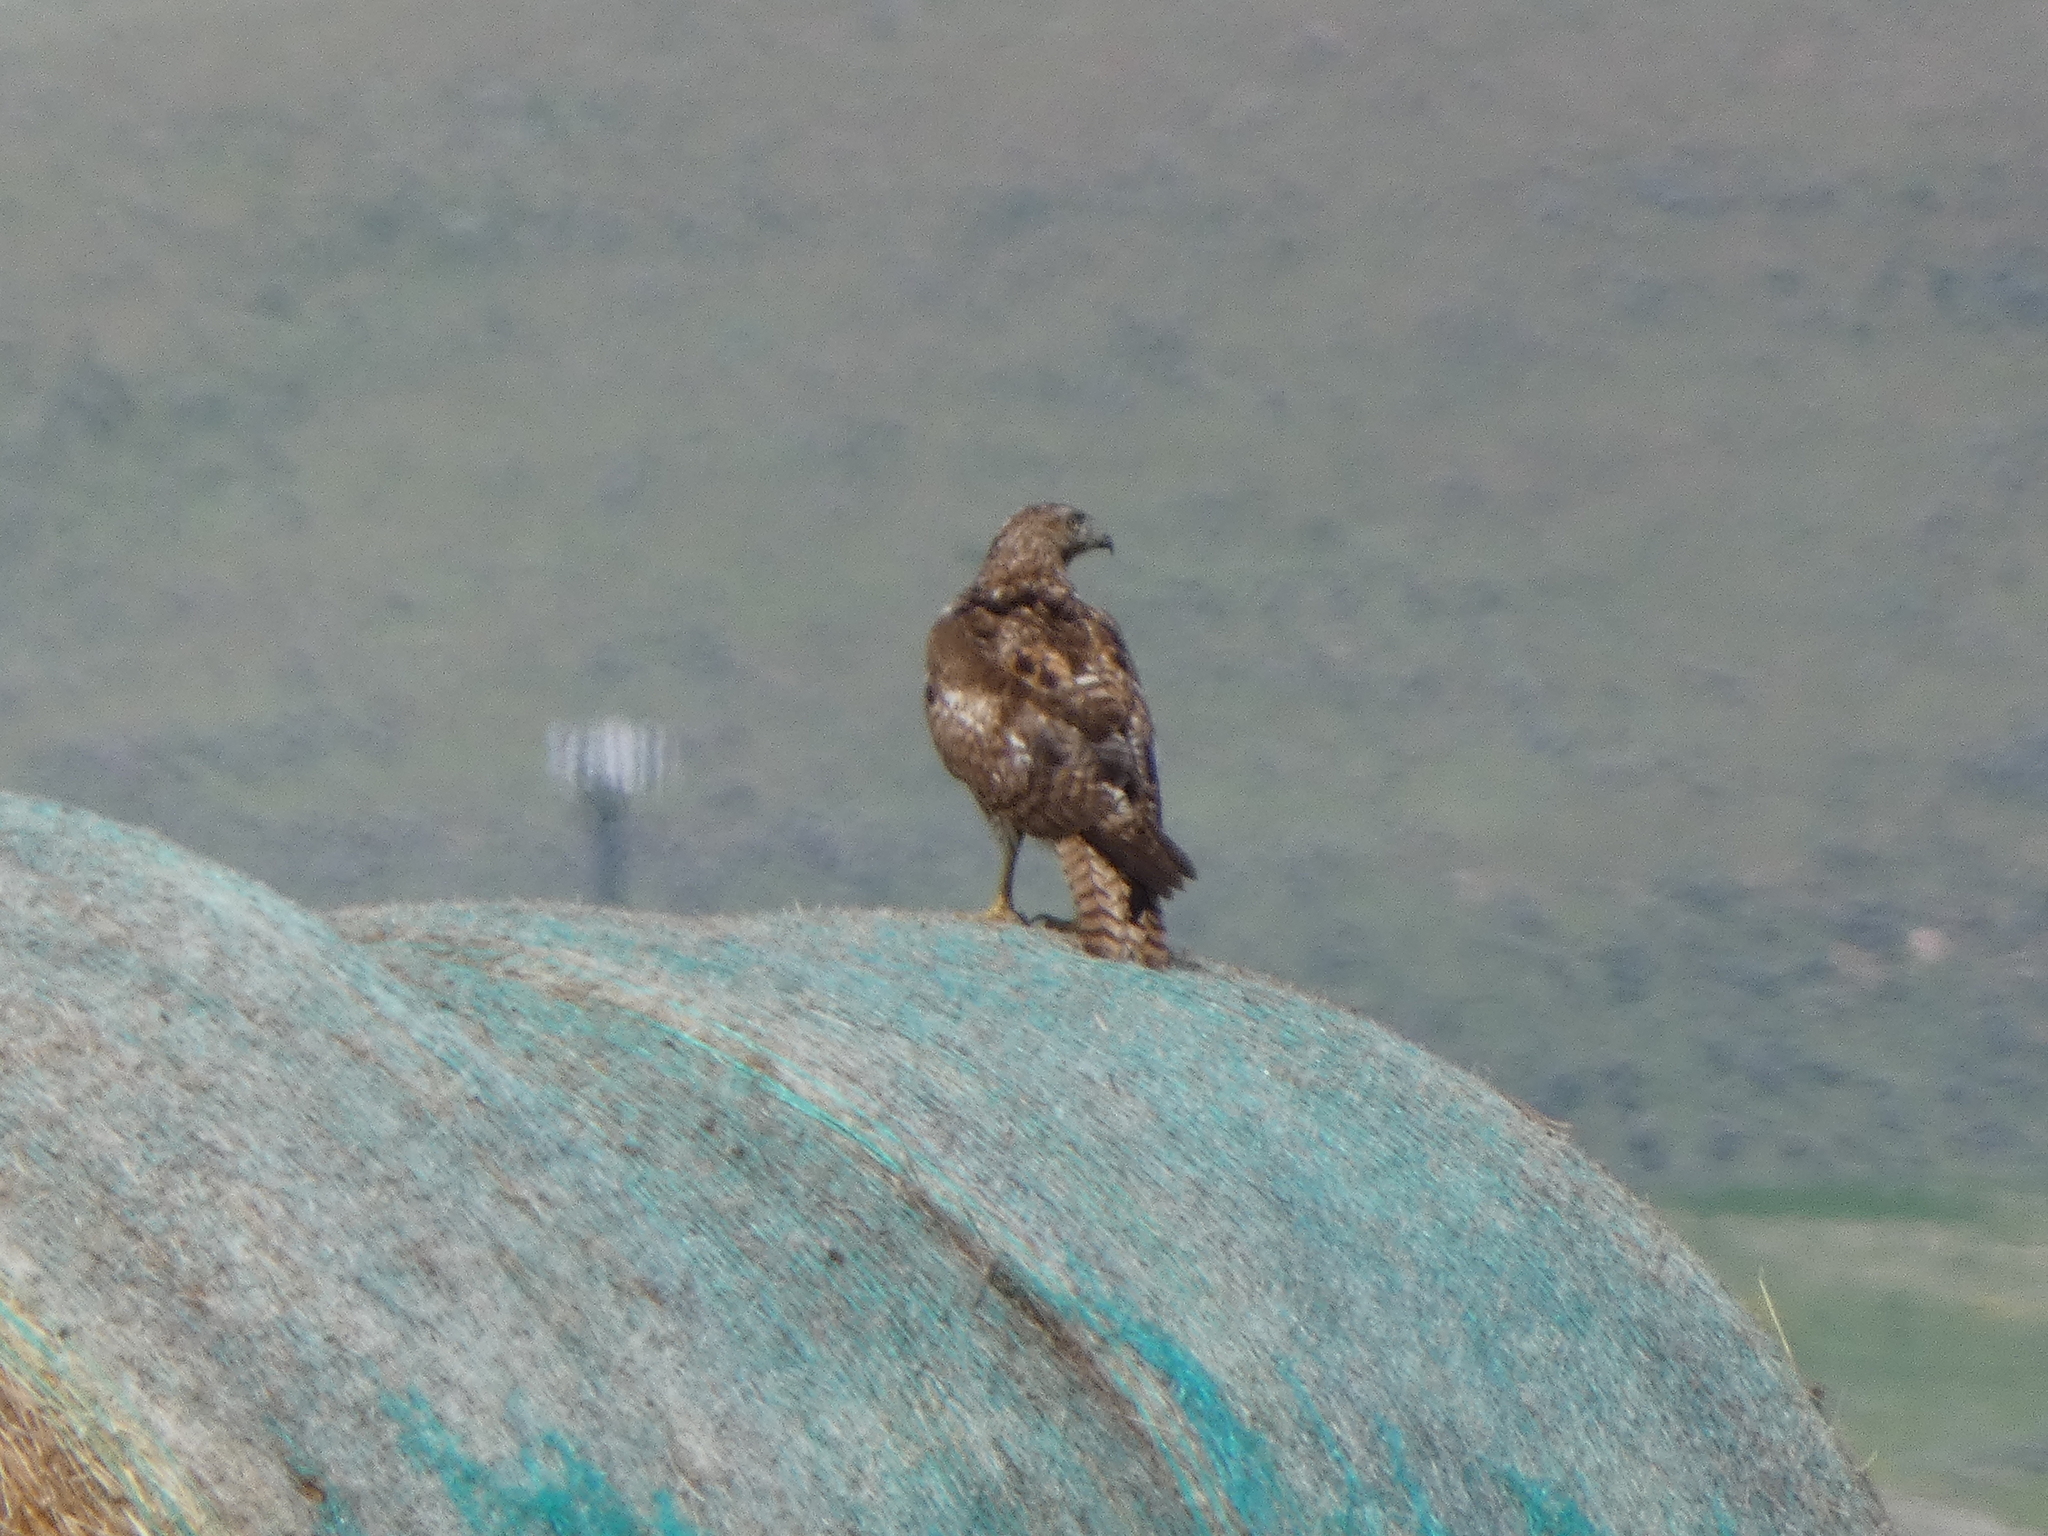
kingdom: Animalia
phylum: Chordata
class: Aves
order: Accipitriformes
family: Accipitridae
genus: Buteo
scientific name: Buteo jamaicensis
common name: Red-tailed hawk
